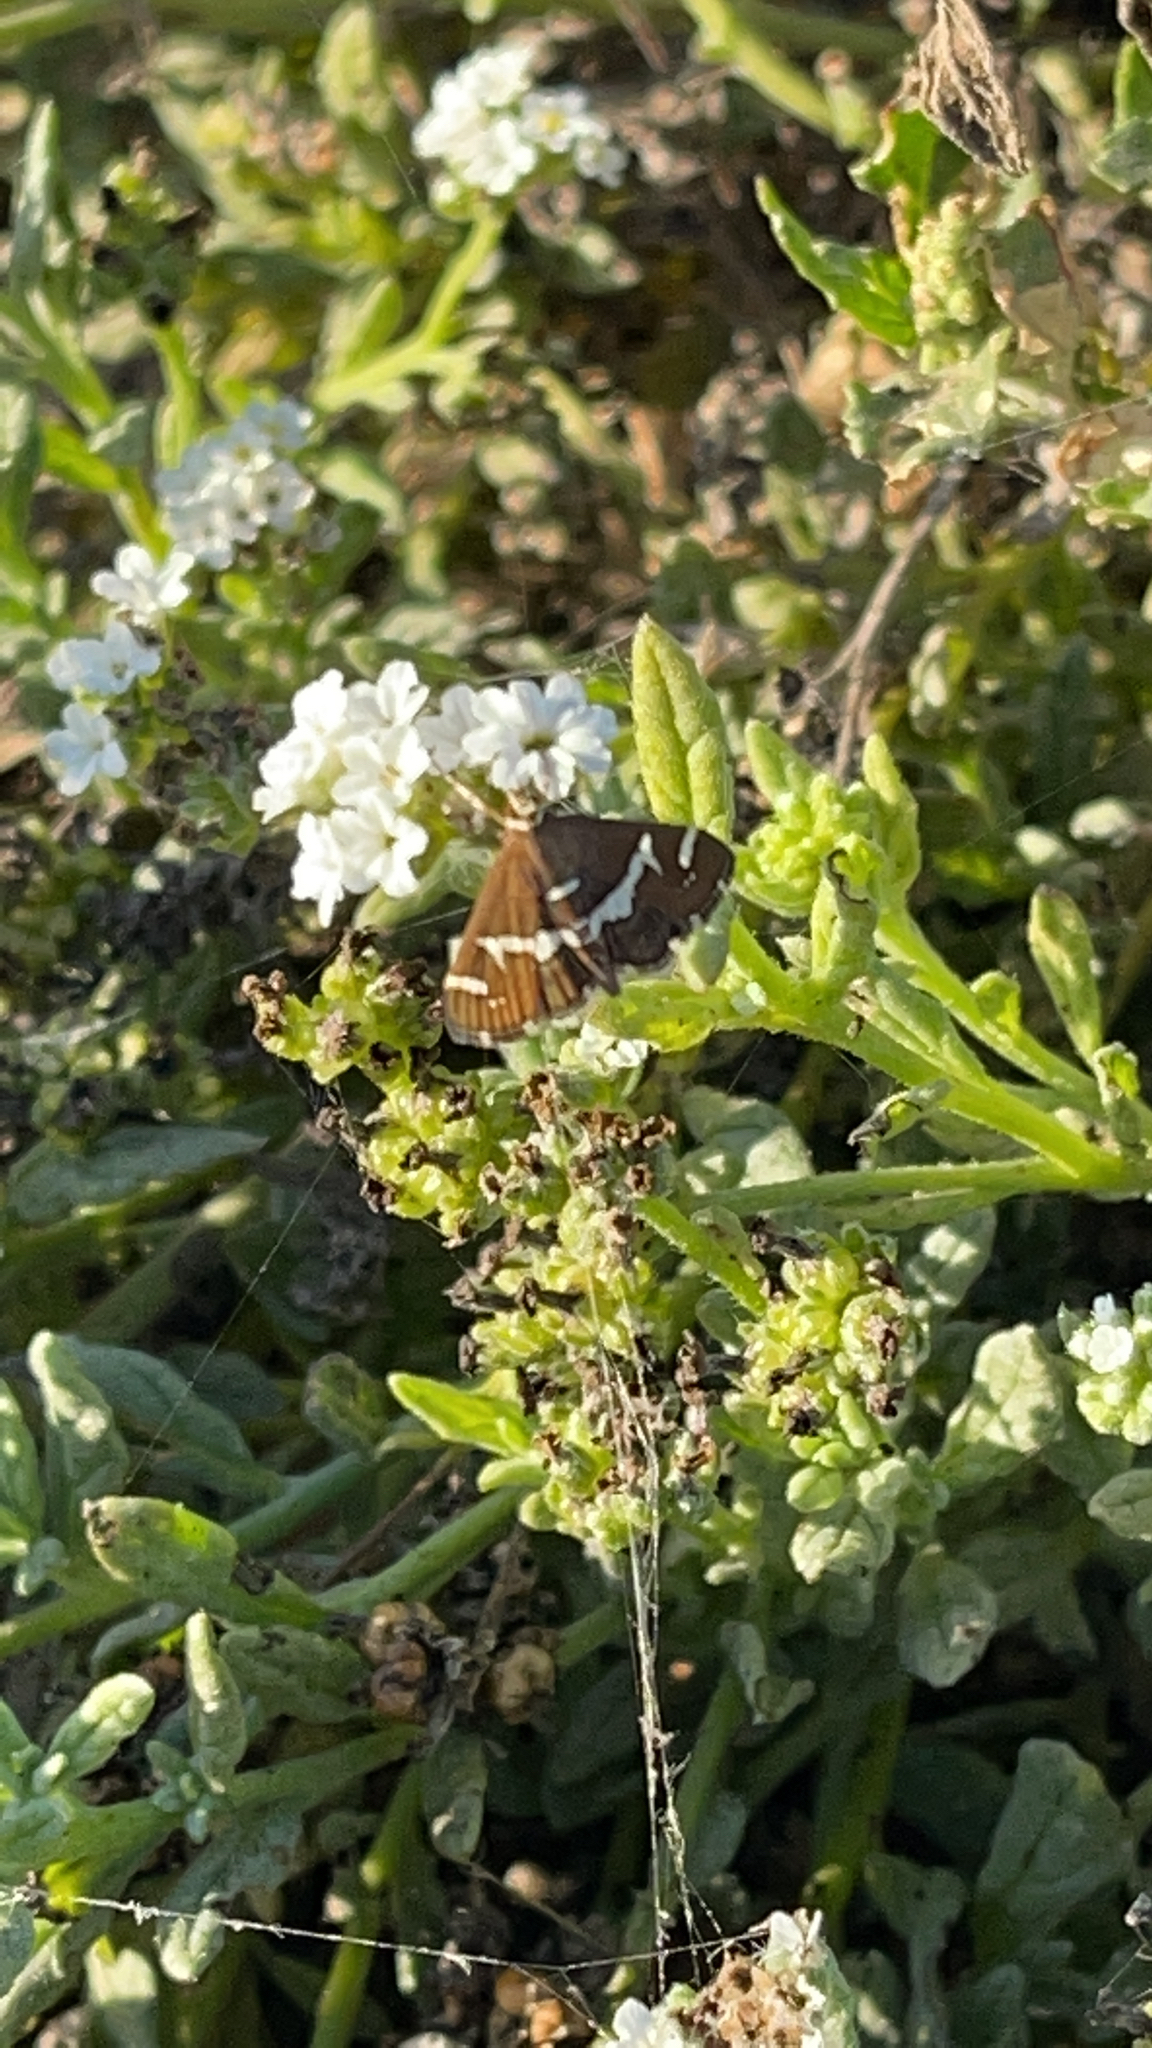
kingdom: Animalia
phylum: Arthropoda
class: Insecta
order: Lepidoptera
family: Crambidae
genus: Spoladea
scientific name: Spoladea recurvalis
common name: Beet webworm moth
